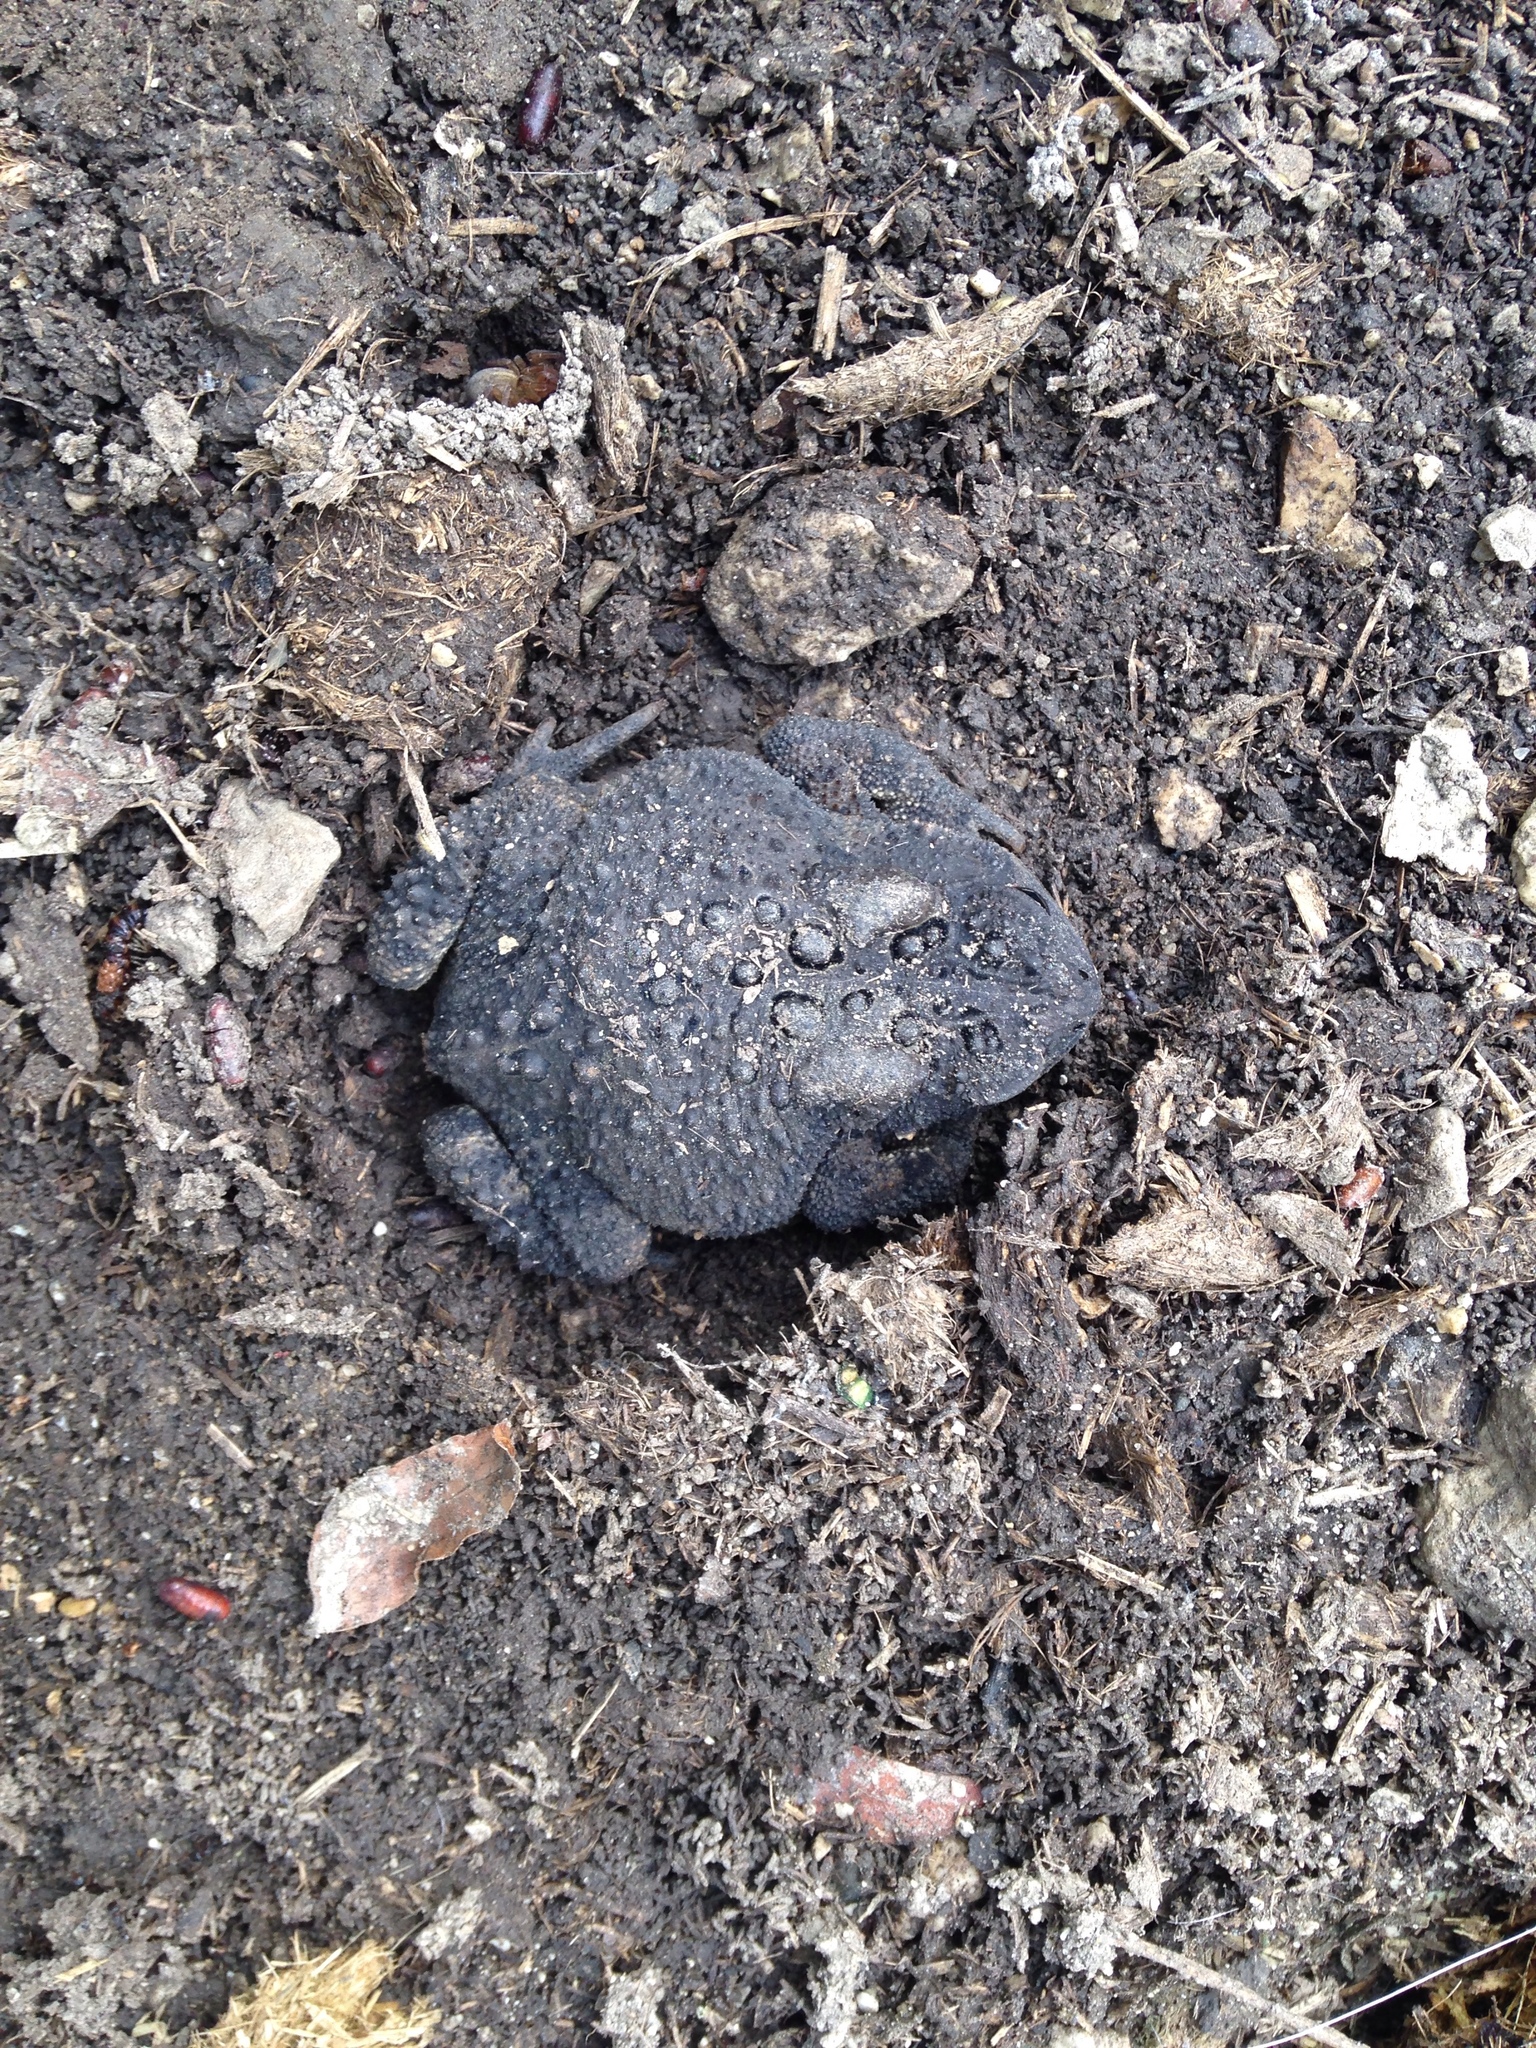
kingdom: Animalia
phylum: Chordata
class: Amphibia
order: Anura
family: Bufonidae
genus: Anaxyrus
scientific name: Anaxyrus americanus
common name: American toad
